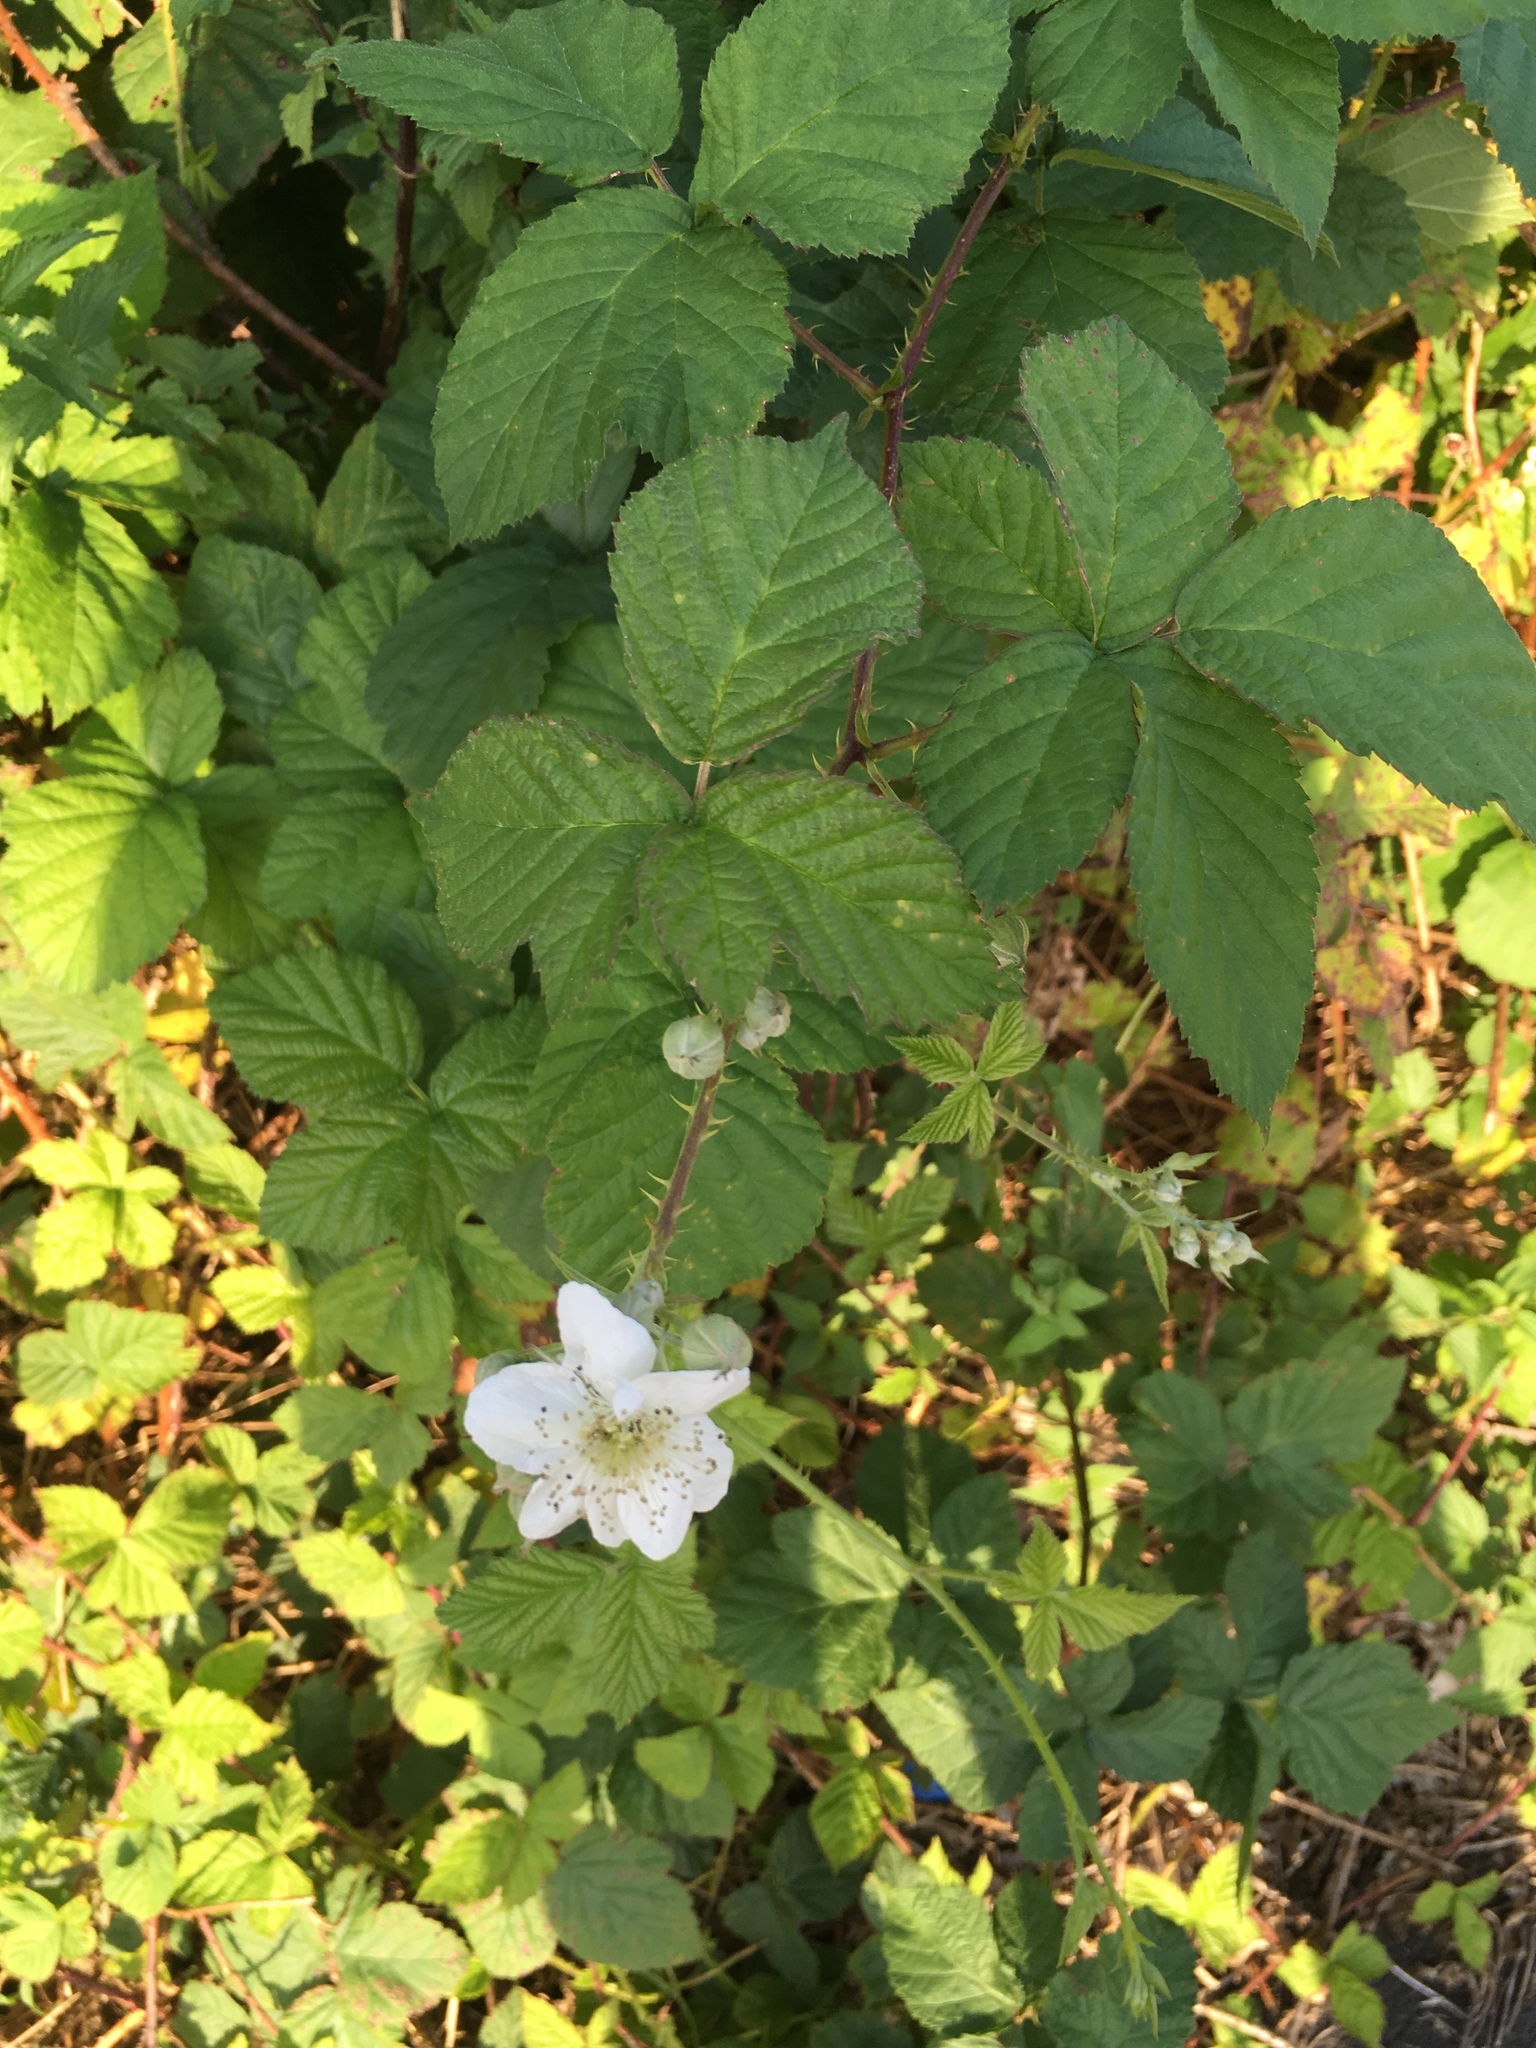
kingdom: Plantae
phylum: Tracheophyta
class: Magnoliopsida
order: Rosales
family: Rosaceae
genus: Rubus
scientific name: Rubus caesius
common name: Dewberry
